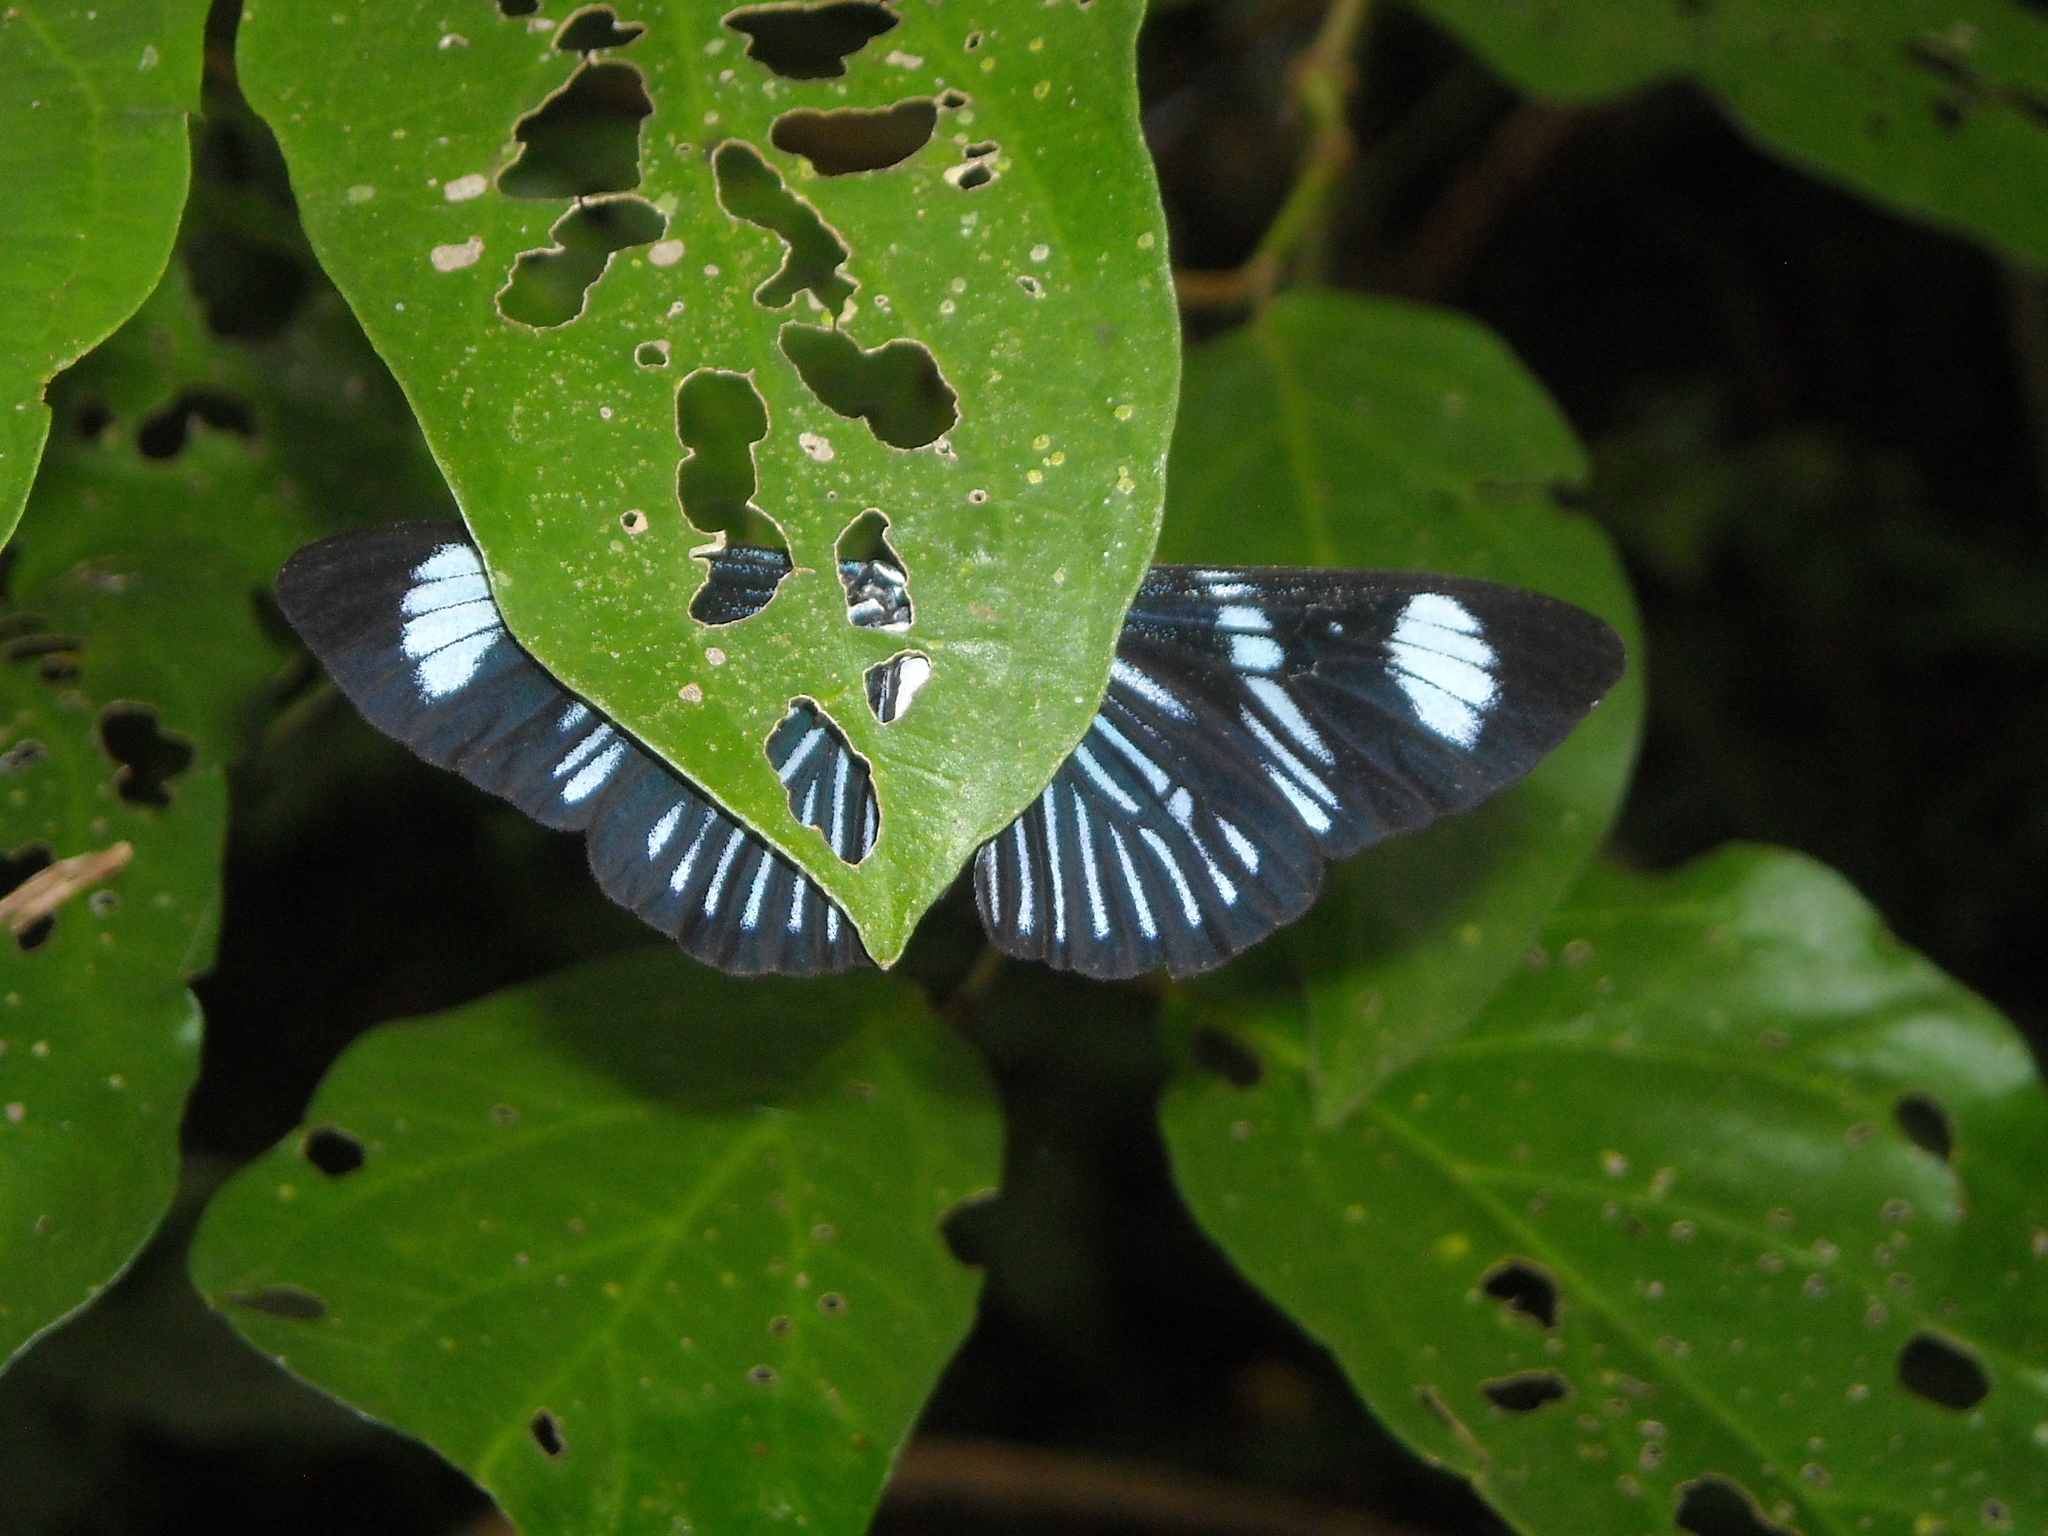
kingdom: Animalia
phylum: Arthropoda
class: Insecta
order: Lepidoptera
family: Erebidae
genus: Hypocrita
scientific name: Hypocrita
